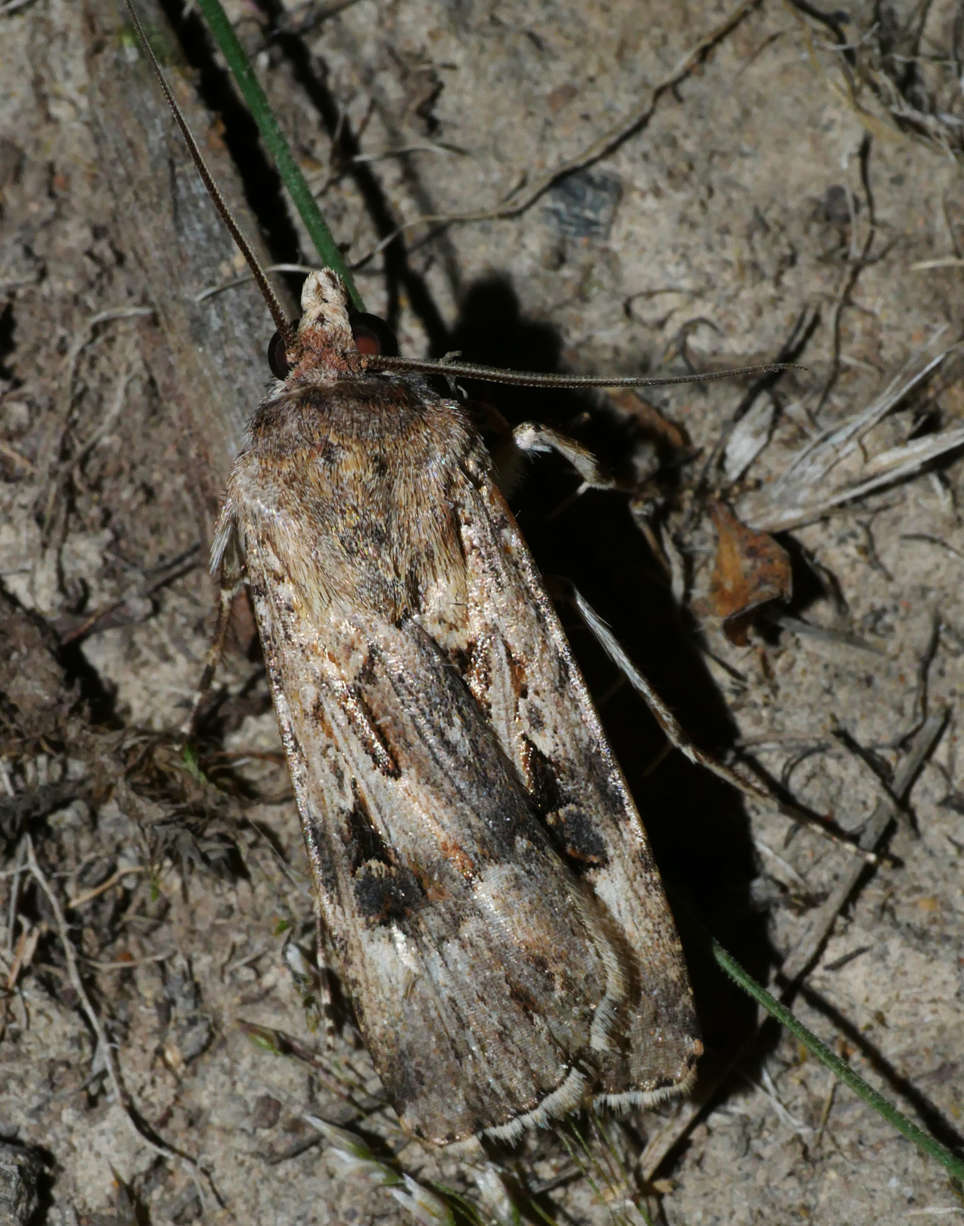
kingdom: Animalia
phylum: Arthropoda
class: Insecta
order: Lepidoptera
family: Noctuidae
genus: Agrotis
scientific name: Agrotis munda
